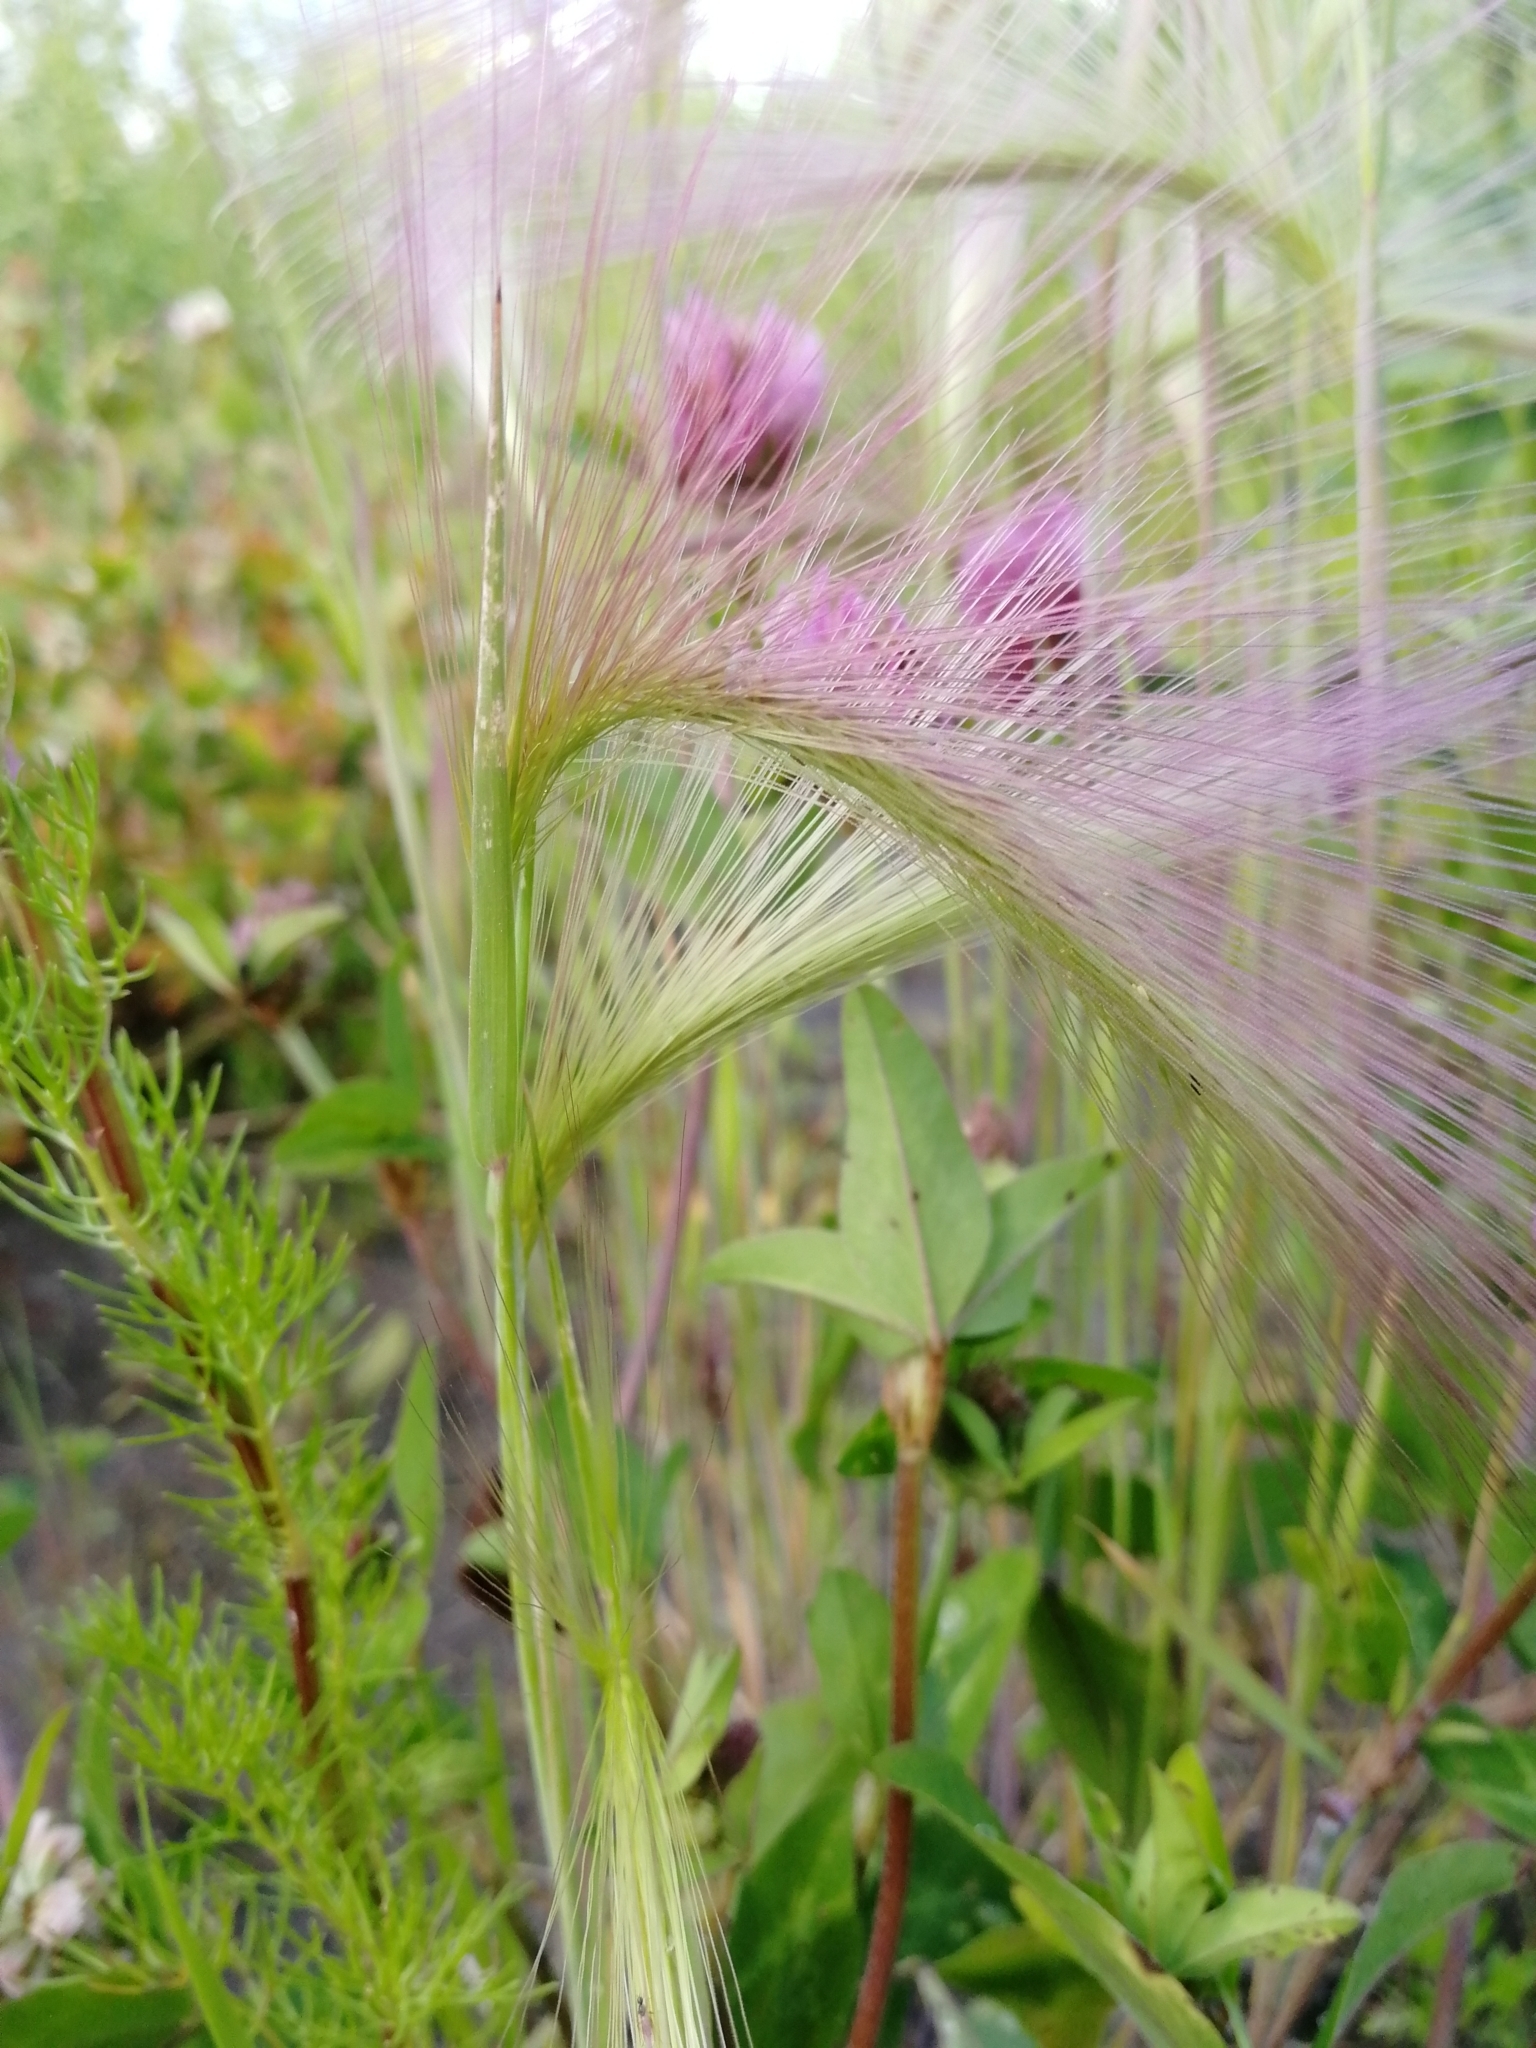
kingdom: Plantae
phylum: Tracheophyta
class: Liliopsida
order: Poales
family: Poaceae
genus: Hordeum
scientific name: Hordeum jubatum
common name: Foxtail barley
